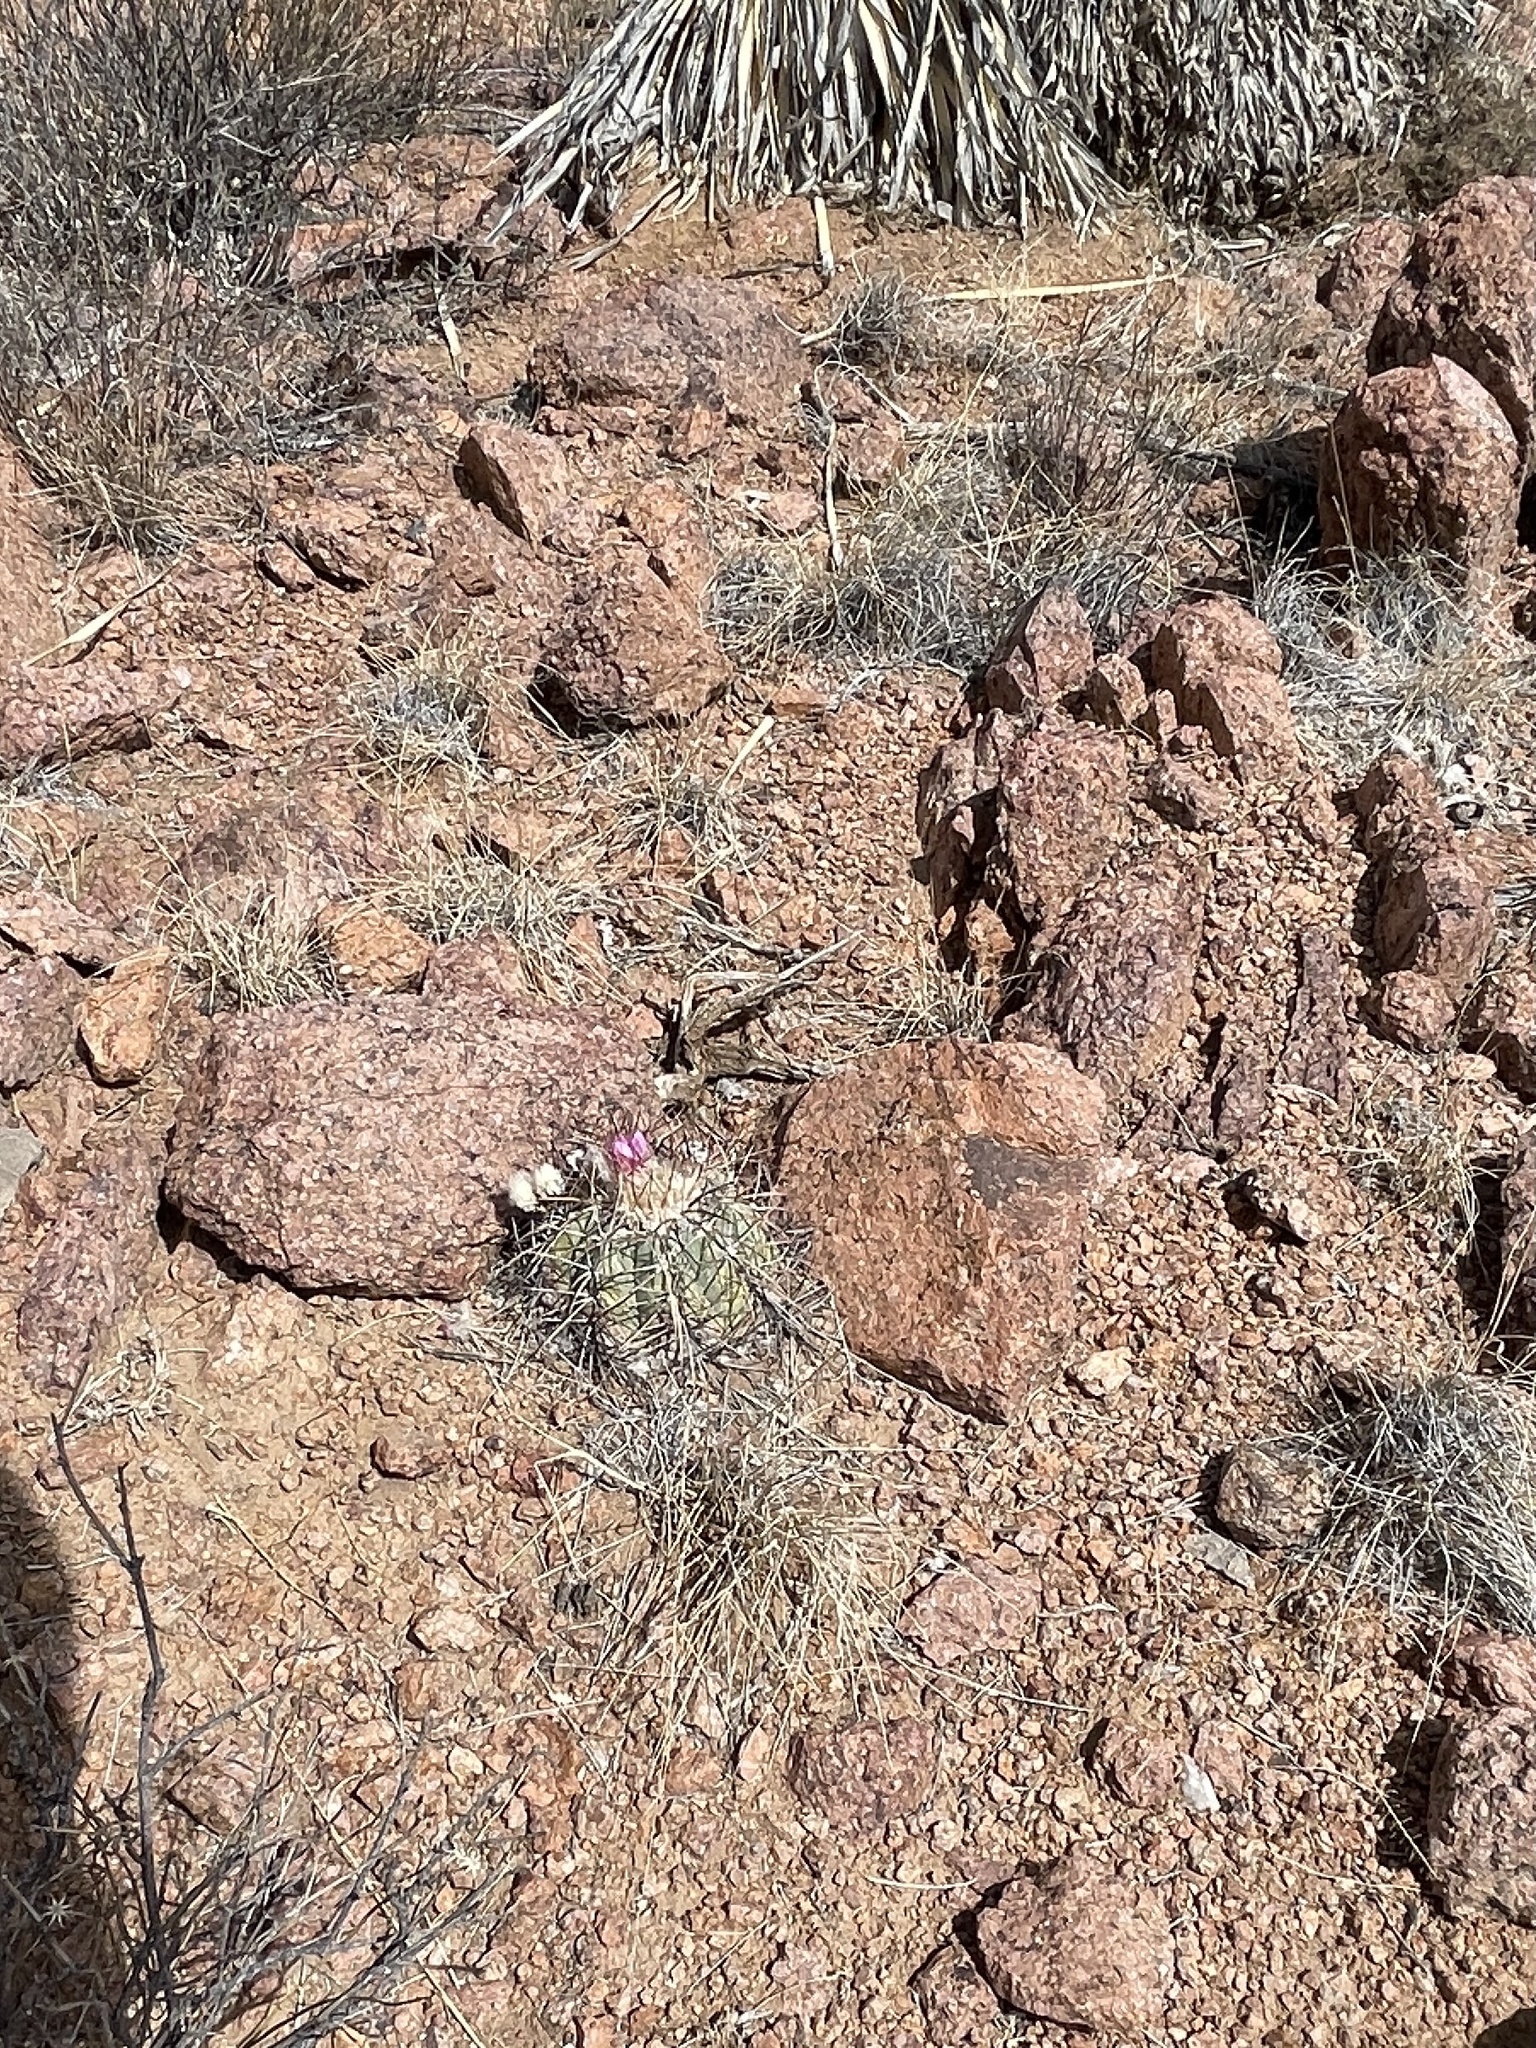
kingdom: Plantae
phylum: Tracheophyta
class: Magnoliopsida
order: Caryophyllales
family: Cactaceae
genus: Echinocactus
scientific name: Echinocactus horizonthalonius
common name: Devilshead
